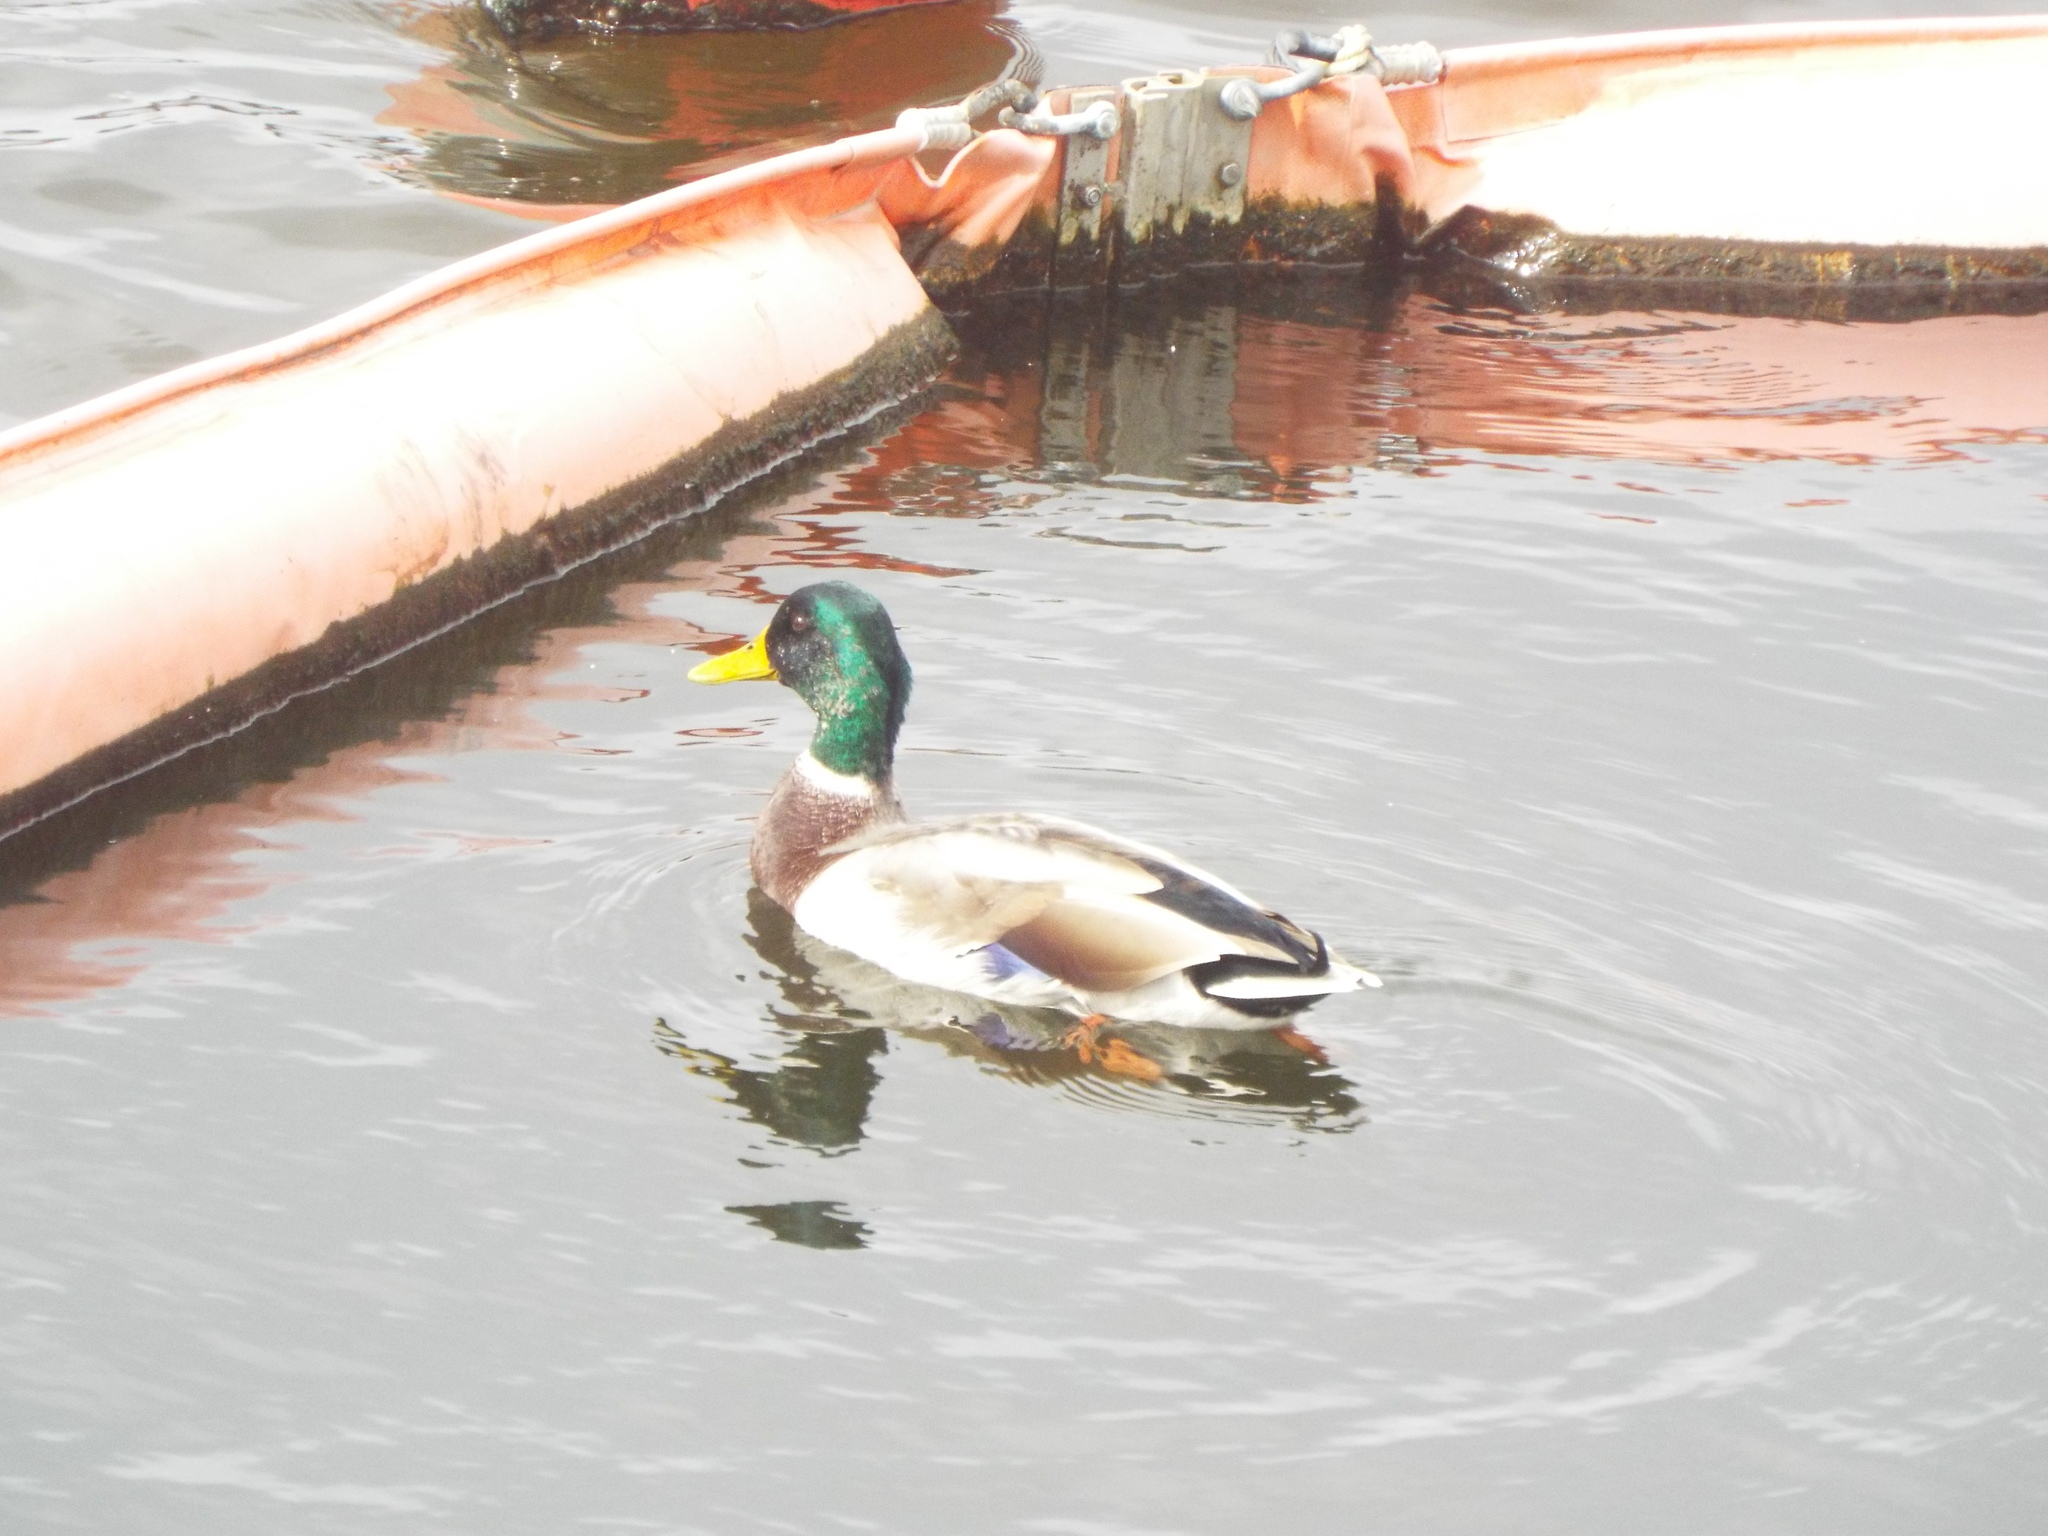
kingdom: Animalia
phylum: Chordata
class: Aves
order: Anseriformes
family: Anatidae
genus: Anas
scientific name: Anas platyrhynchos
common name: Mallard
